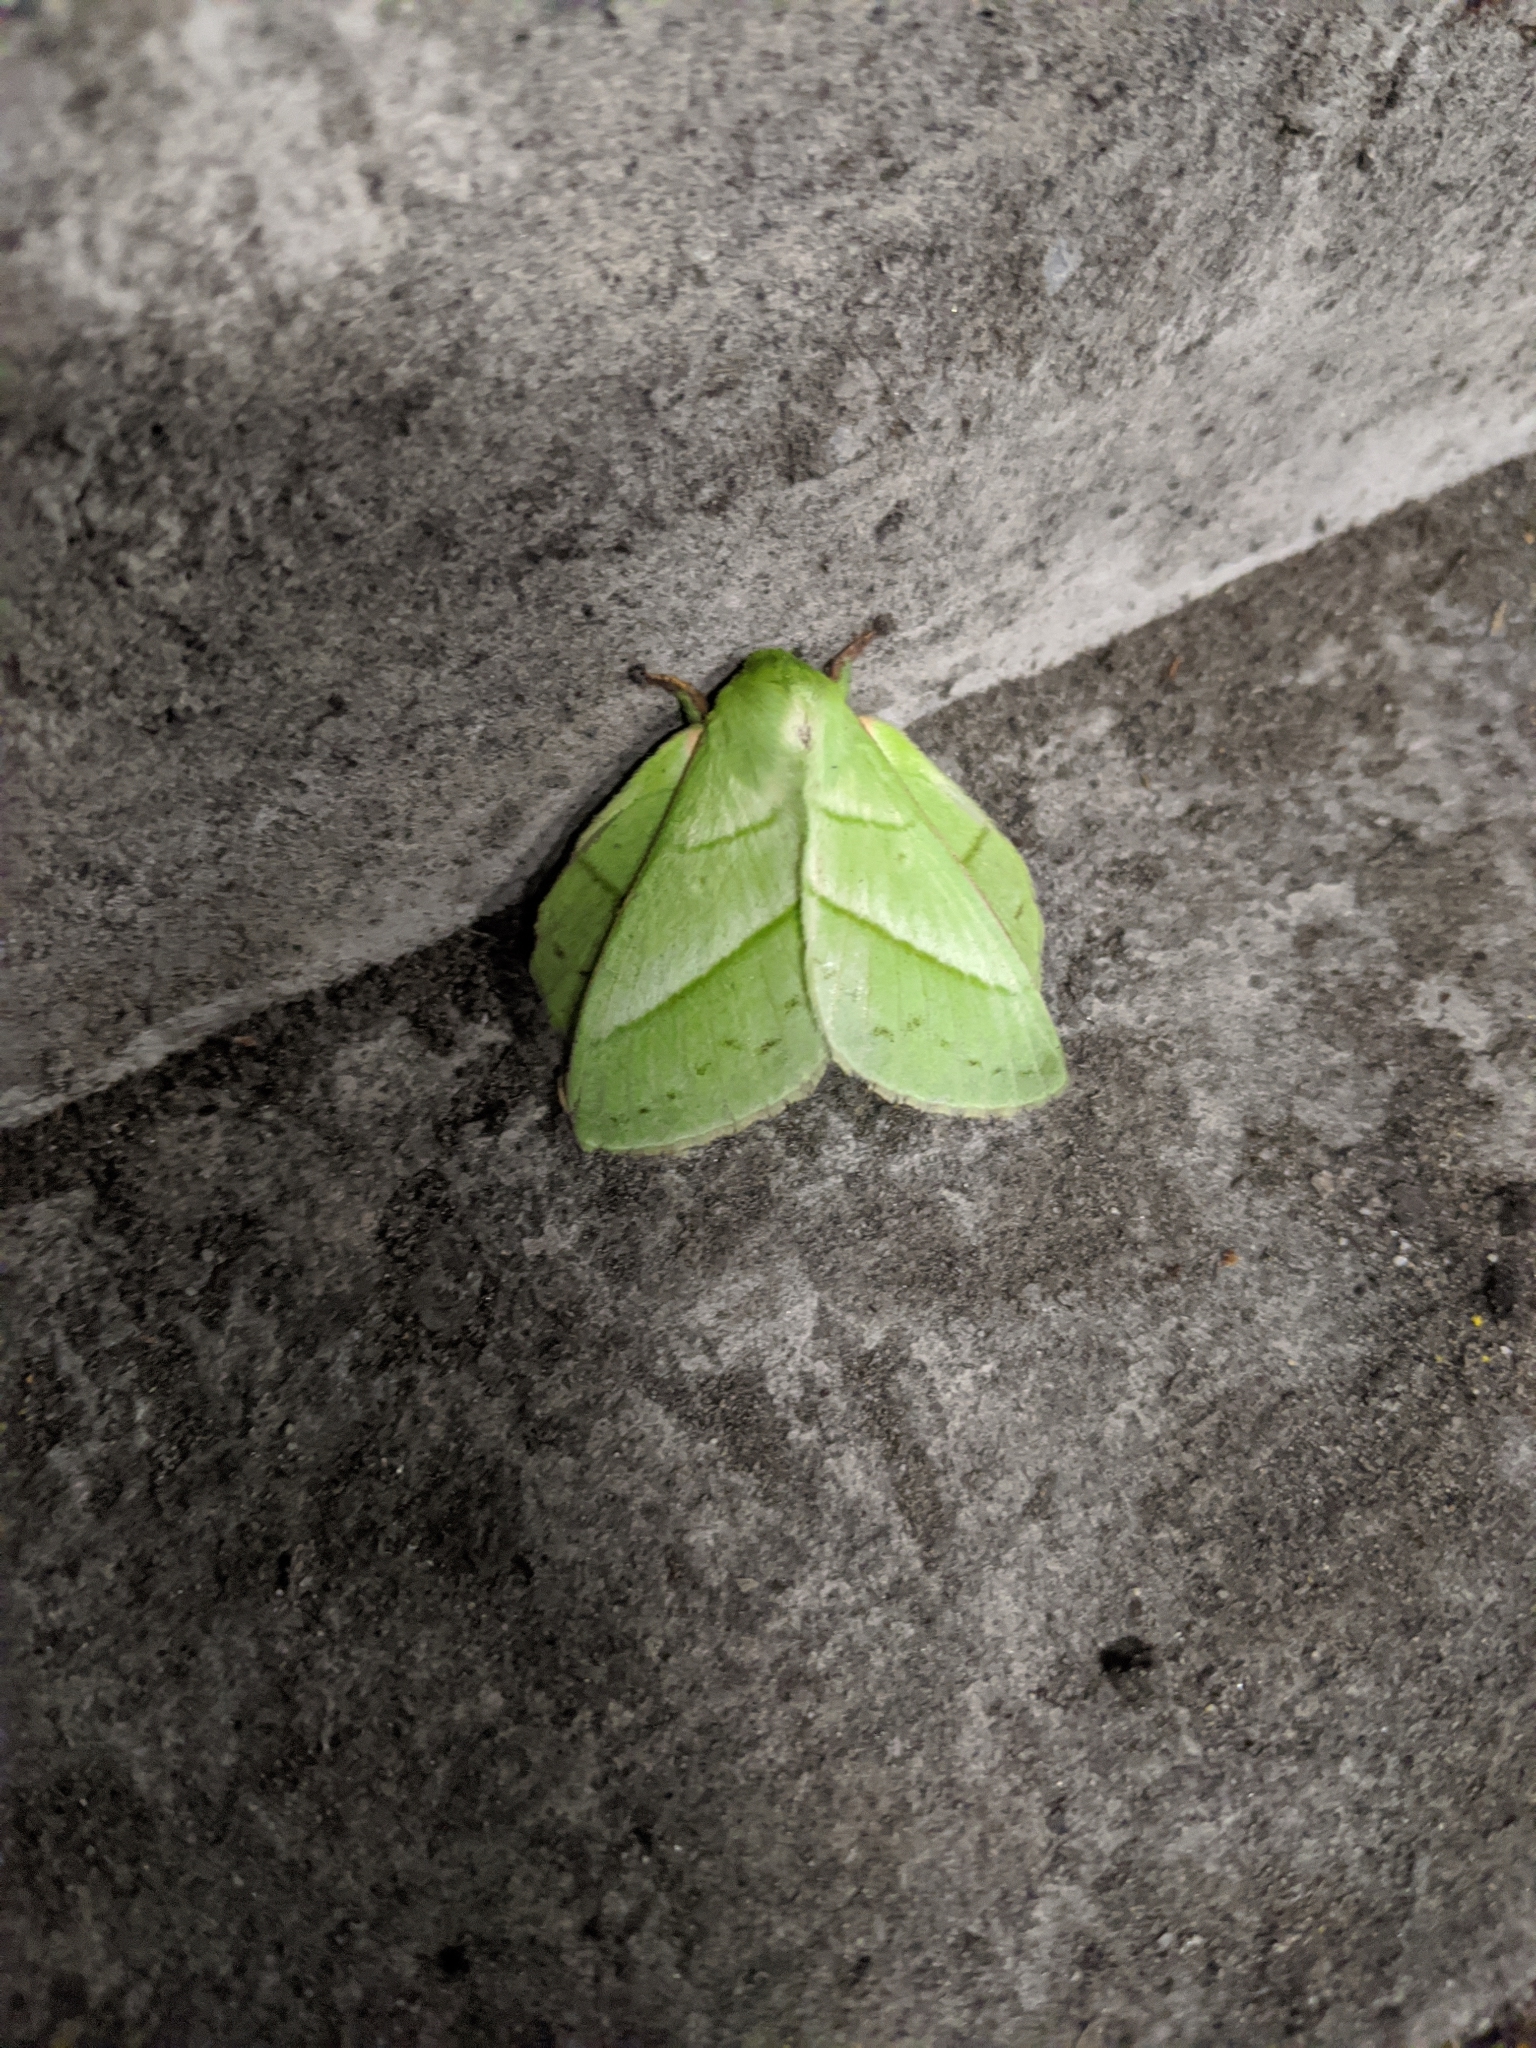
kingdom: Animalia
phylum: Arthropoda
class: Insecta
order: Lepidoptera
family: Lasiocampidae
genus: Trabala
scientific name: Trabala vishnou
